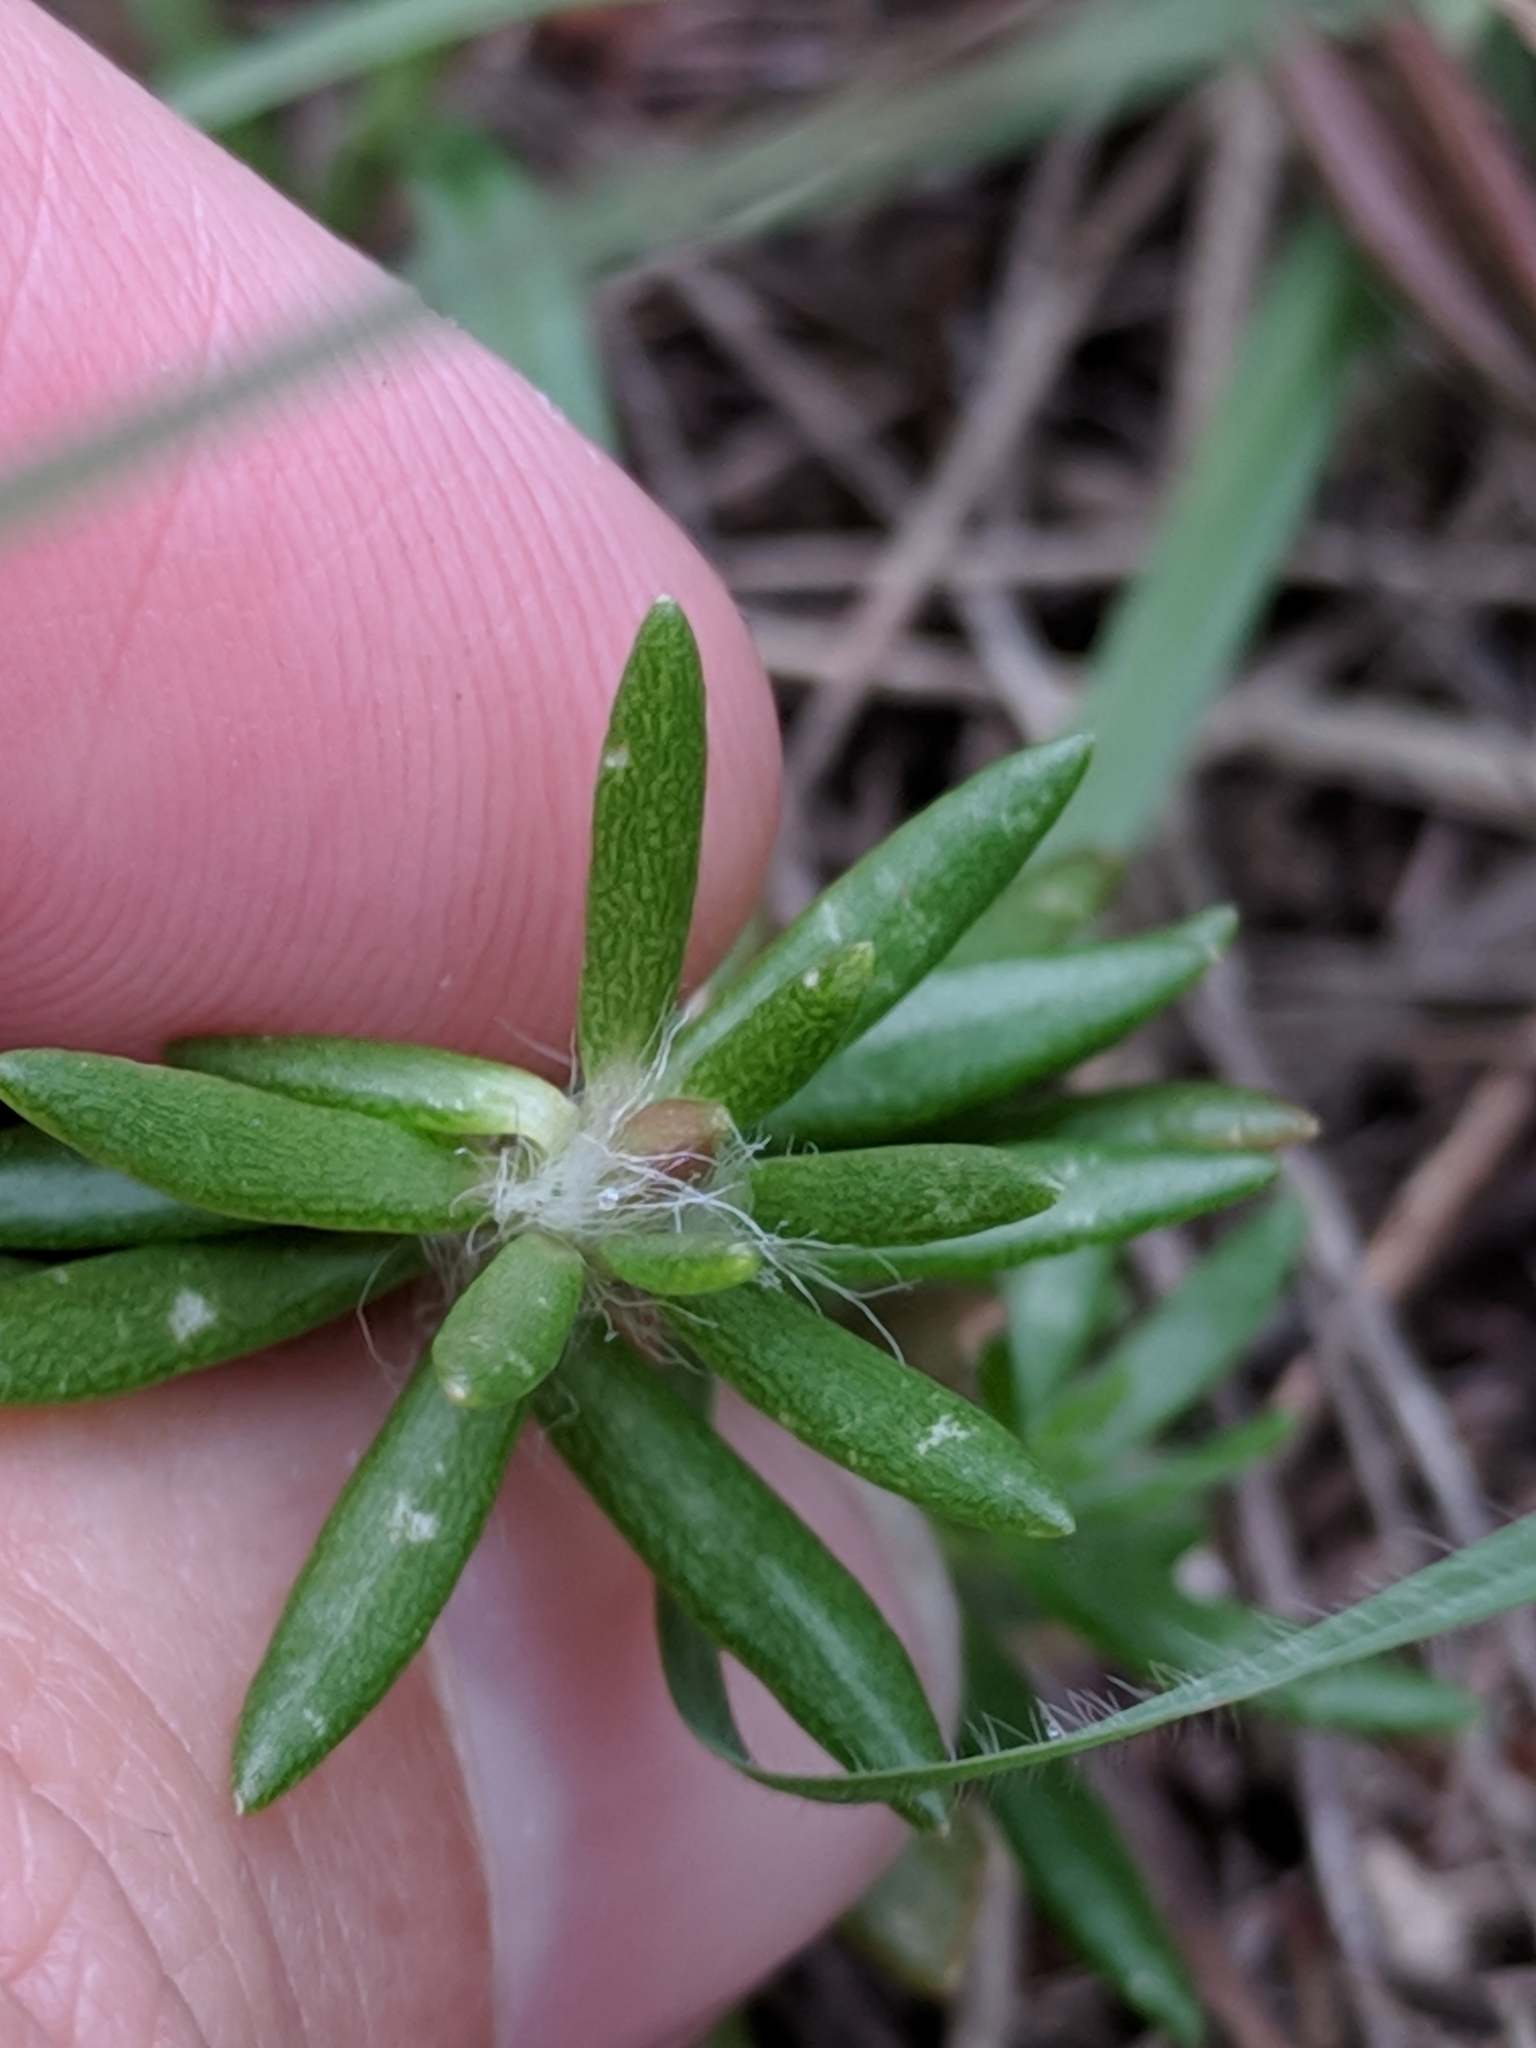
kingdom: Plantae
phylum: Tracheophyta
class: Magnoliopsida
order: Caryophyllales
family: Portulacaceae
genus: Portulaca
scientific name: Portulaca pilosa
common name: Kiss me quick
